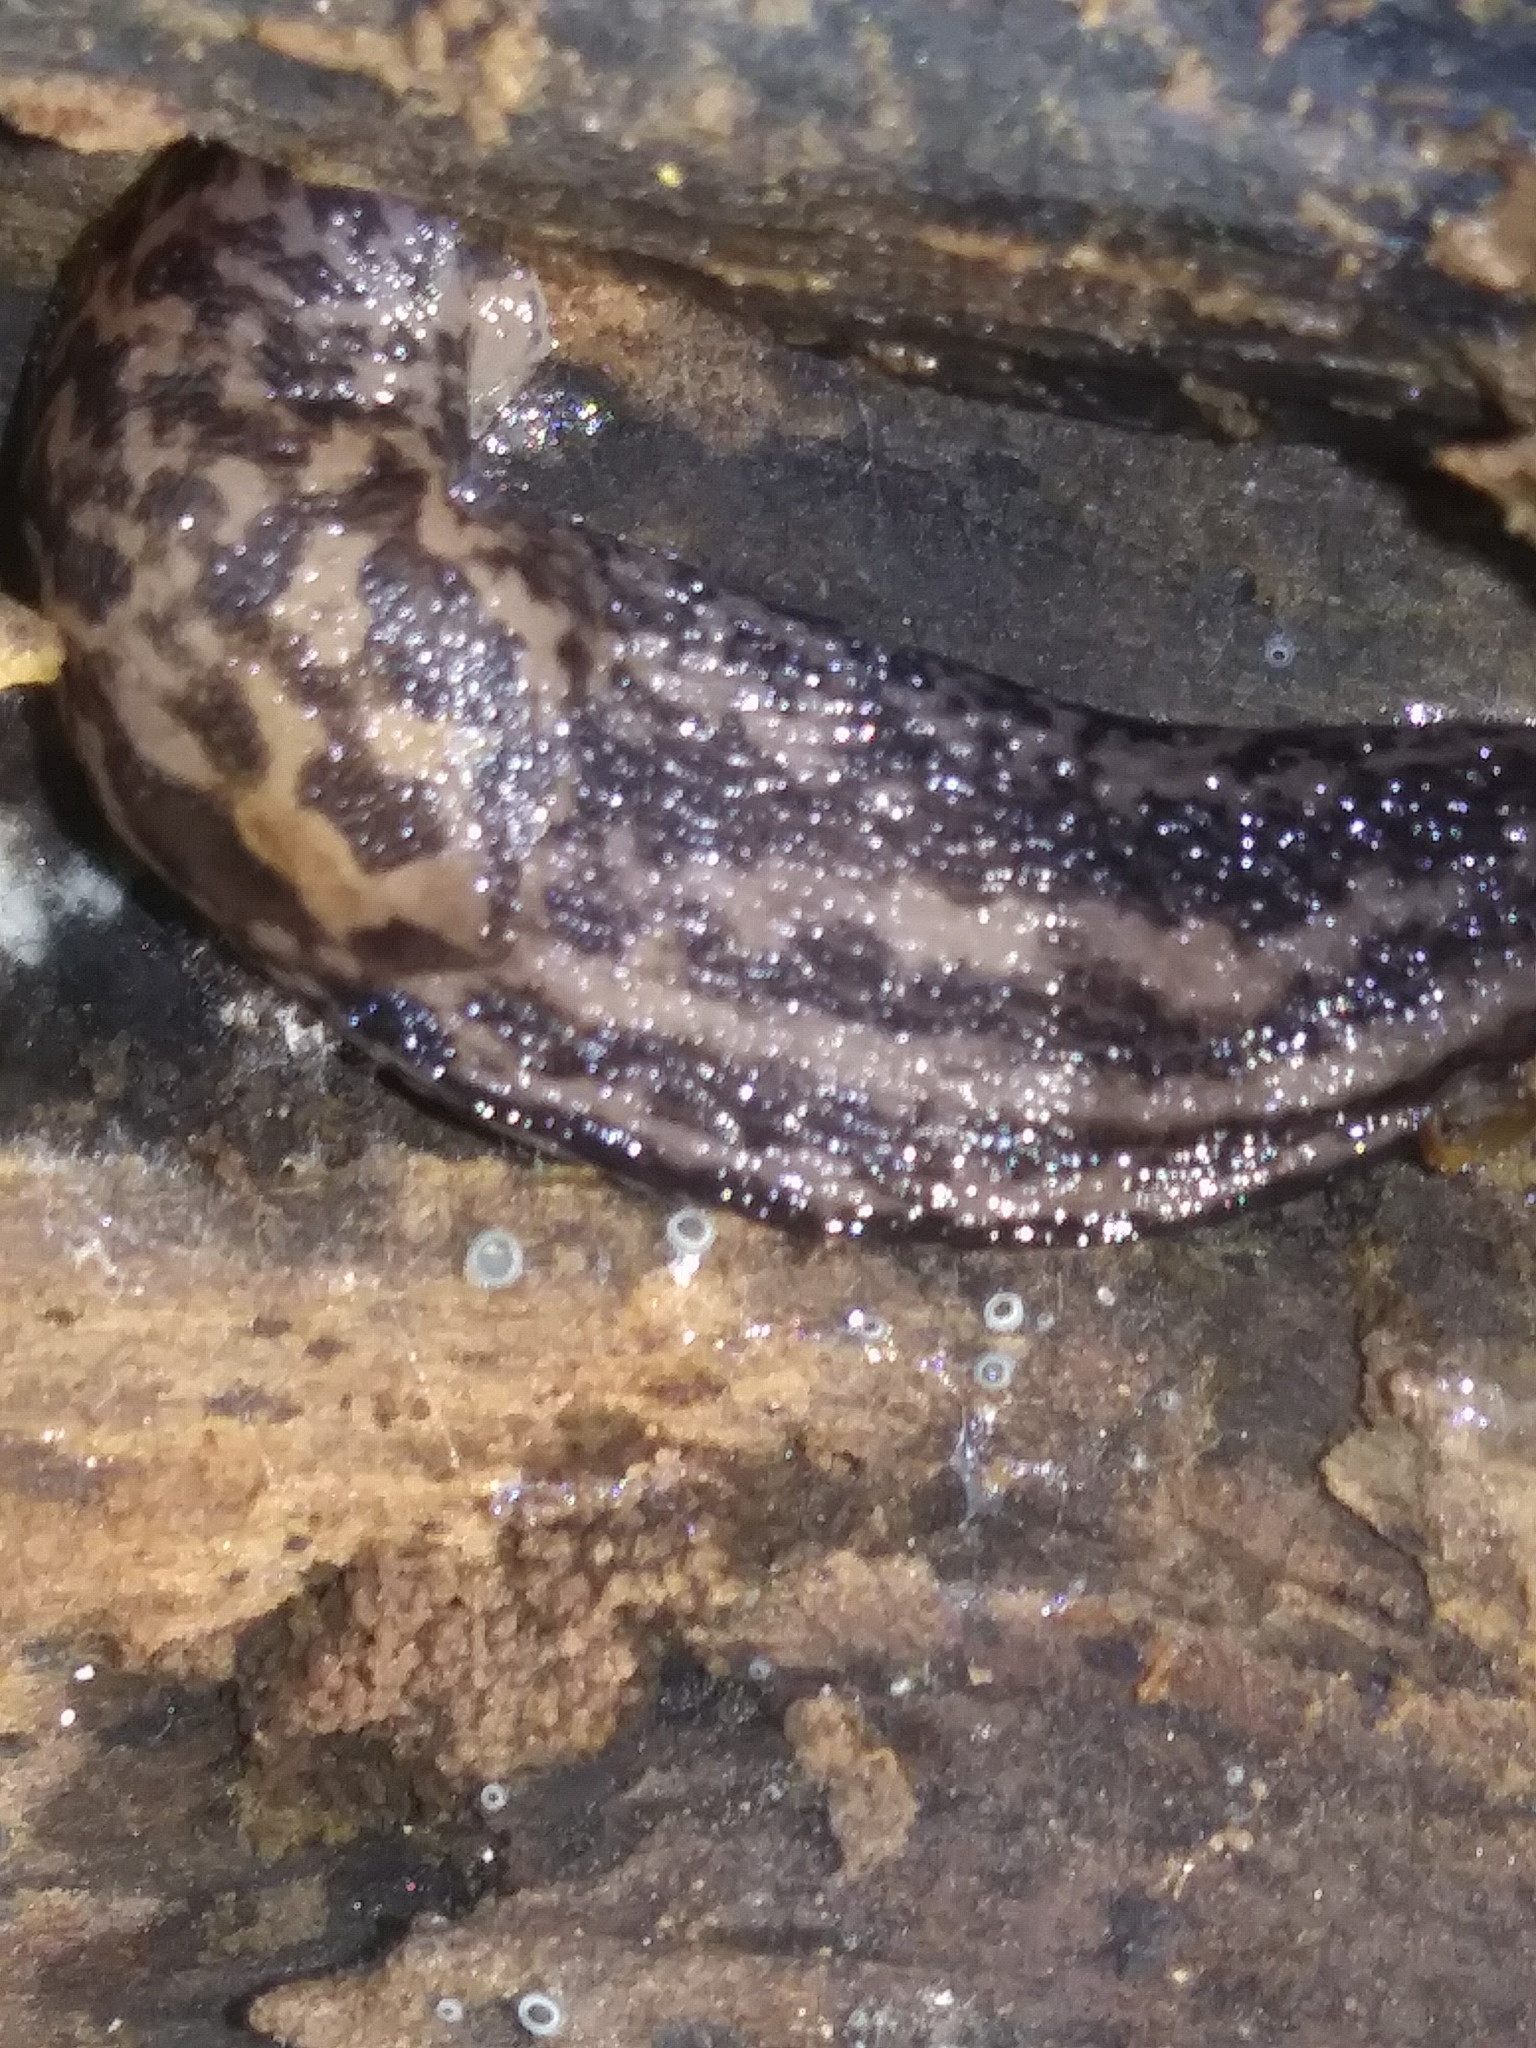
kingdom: Animalia
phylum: Mollusca
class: Gastropoda
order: Stylommatophora
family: Limacidae
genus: Limax
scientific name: Limax maximus
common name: Great grey slug
